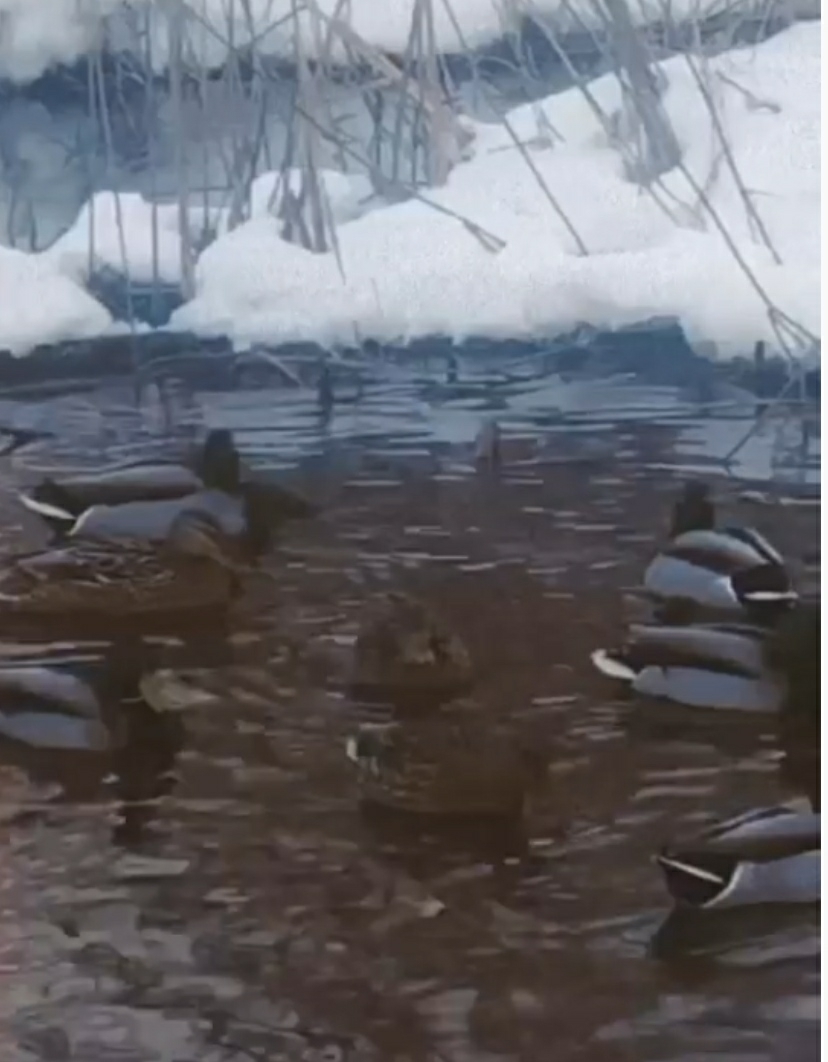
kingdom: Animalia
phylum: Chordata
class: Aves
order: Anseriformes
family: Anatidae
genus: Anas
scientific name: Anas platyrhynchos
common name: Mallard
